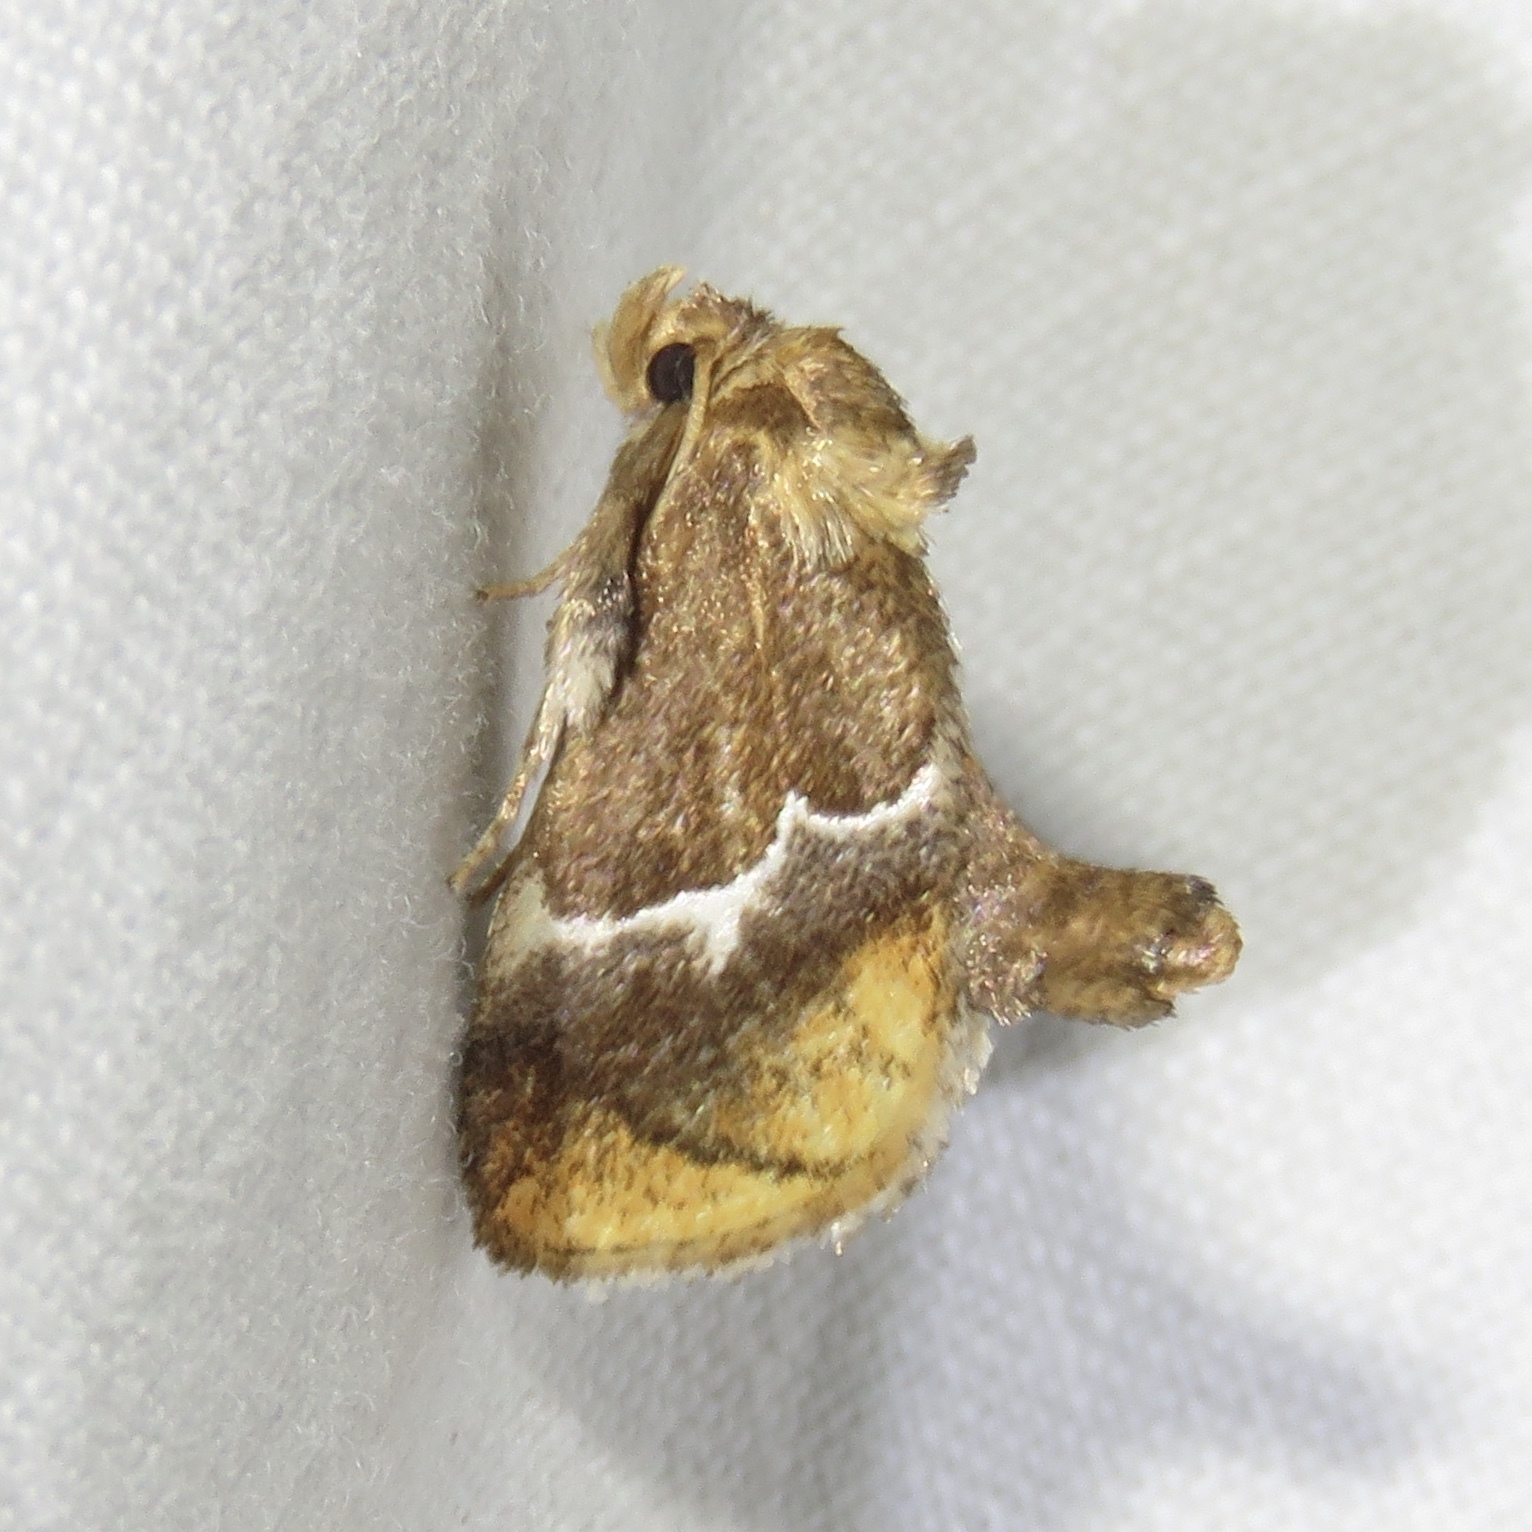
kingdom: Animalia
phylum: Arthropoda
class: Insecta
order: Lepidoptera
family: Limacodidae
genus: Lithacodes
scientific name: Lithacodes fasciola
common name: Yellow-shouldered slug moth
